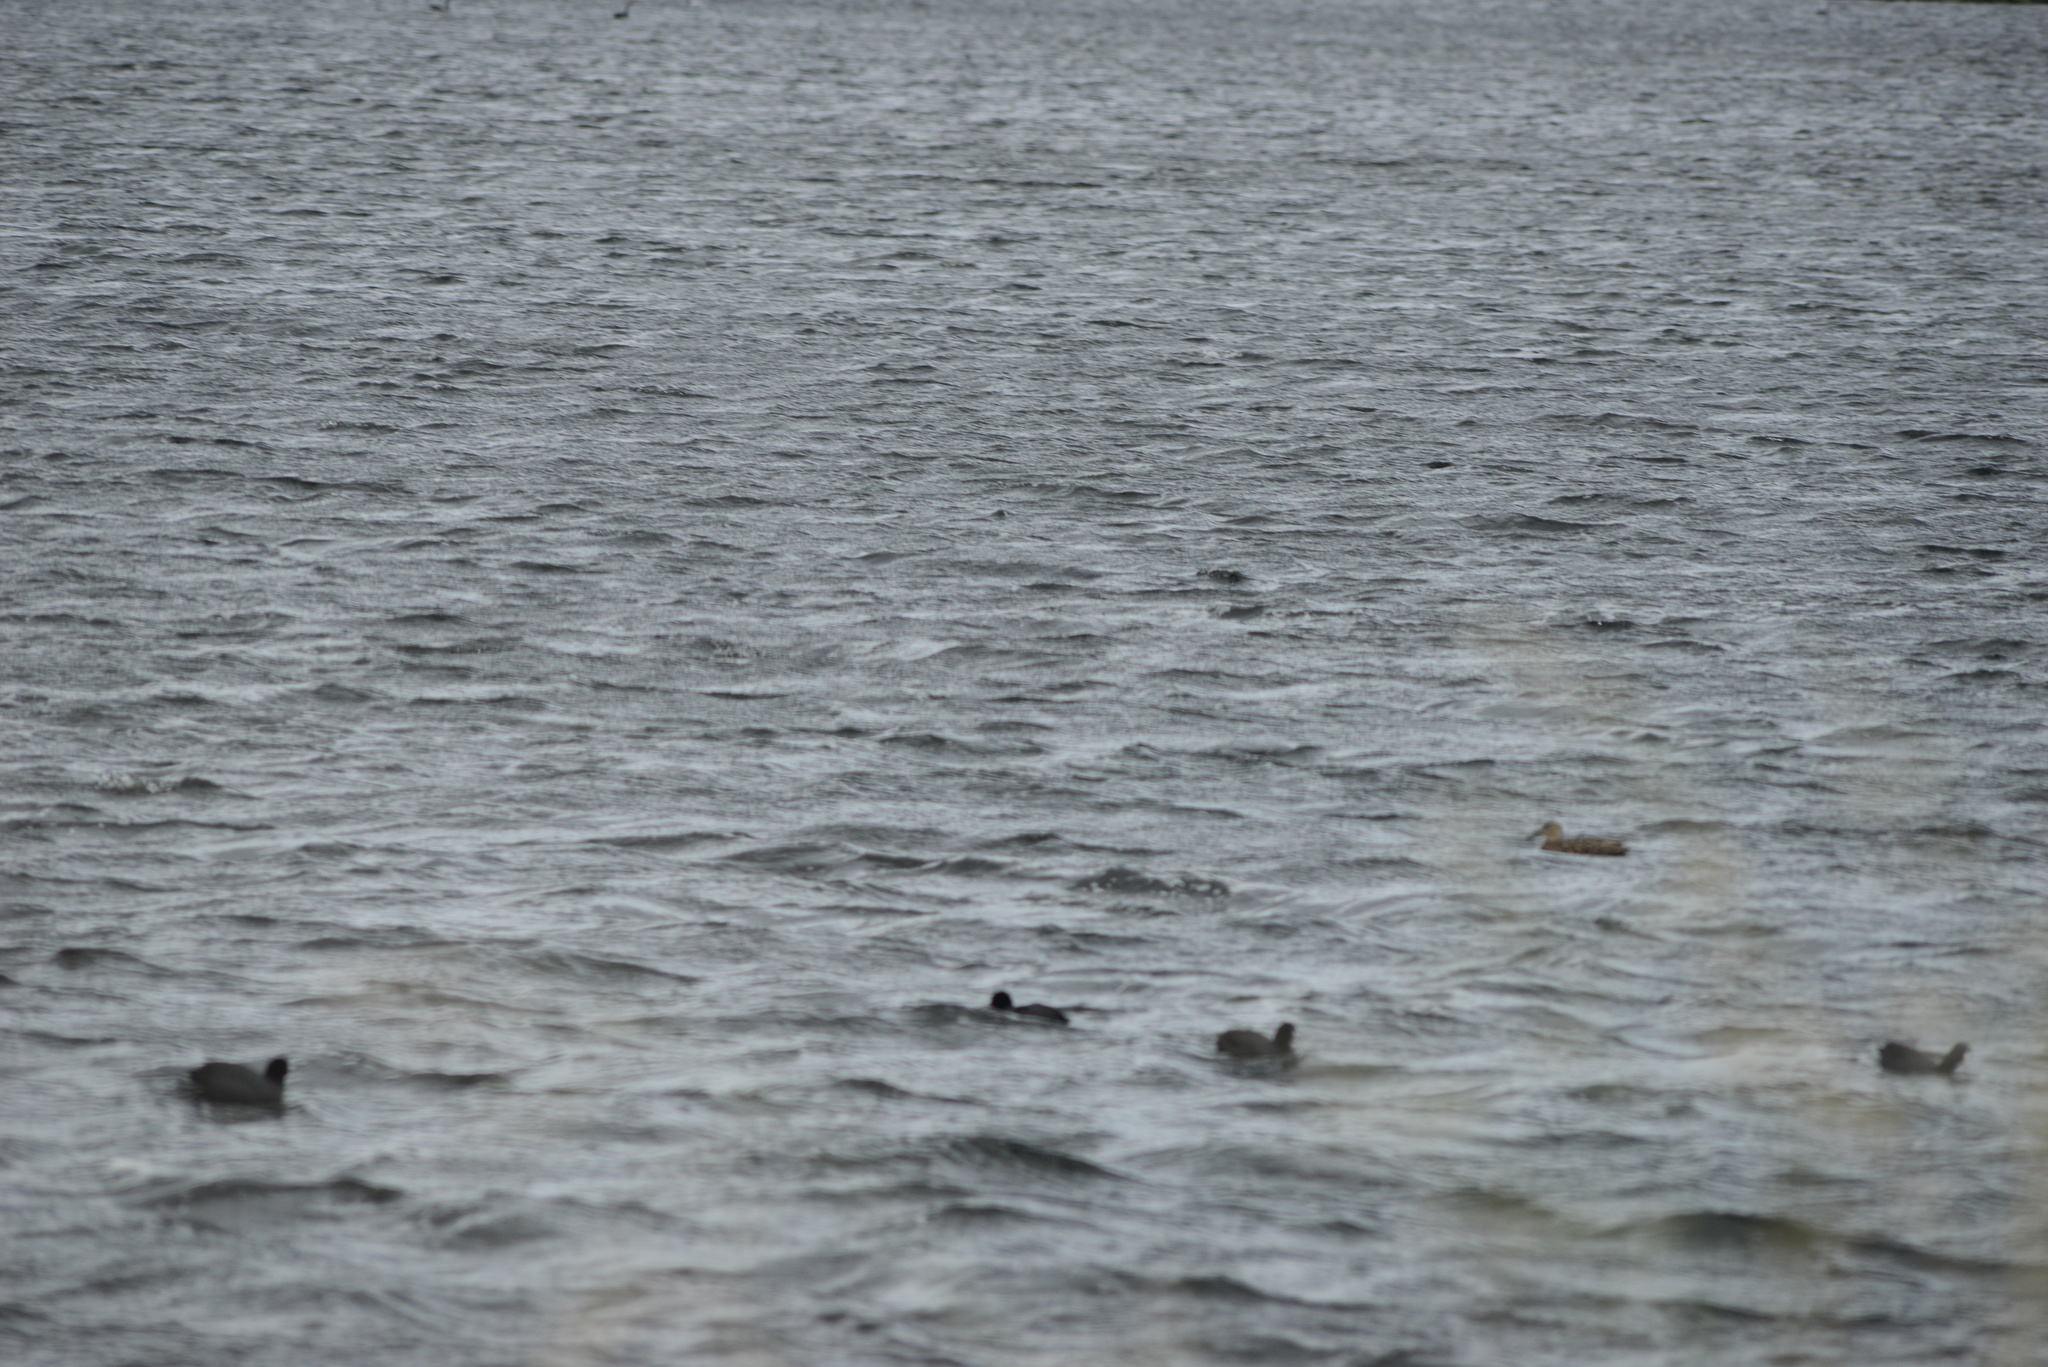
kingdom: Animalia
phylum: Chordata
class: Aves
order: Gruiformes
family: Rallidae
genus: Fulica
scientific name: Fulica atra
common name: Eurasian coot
